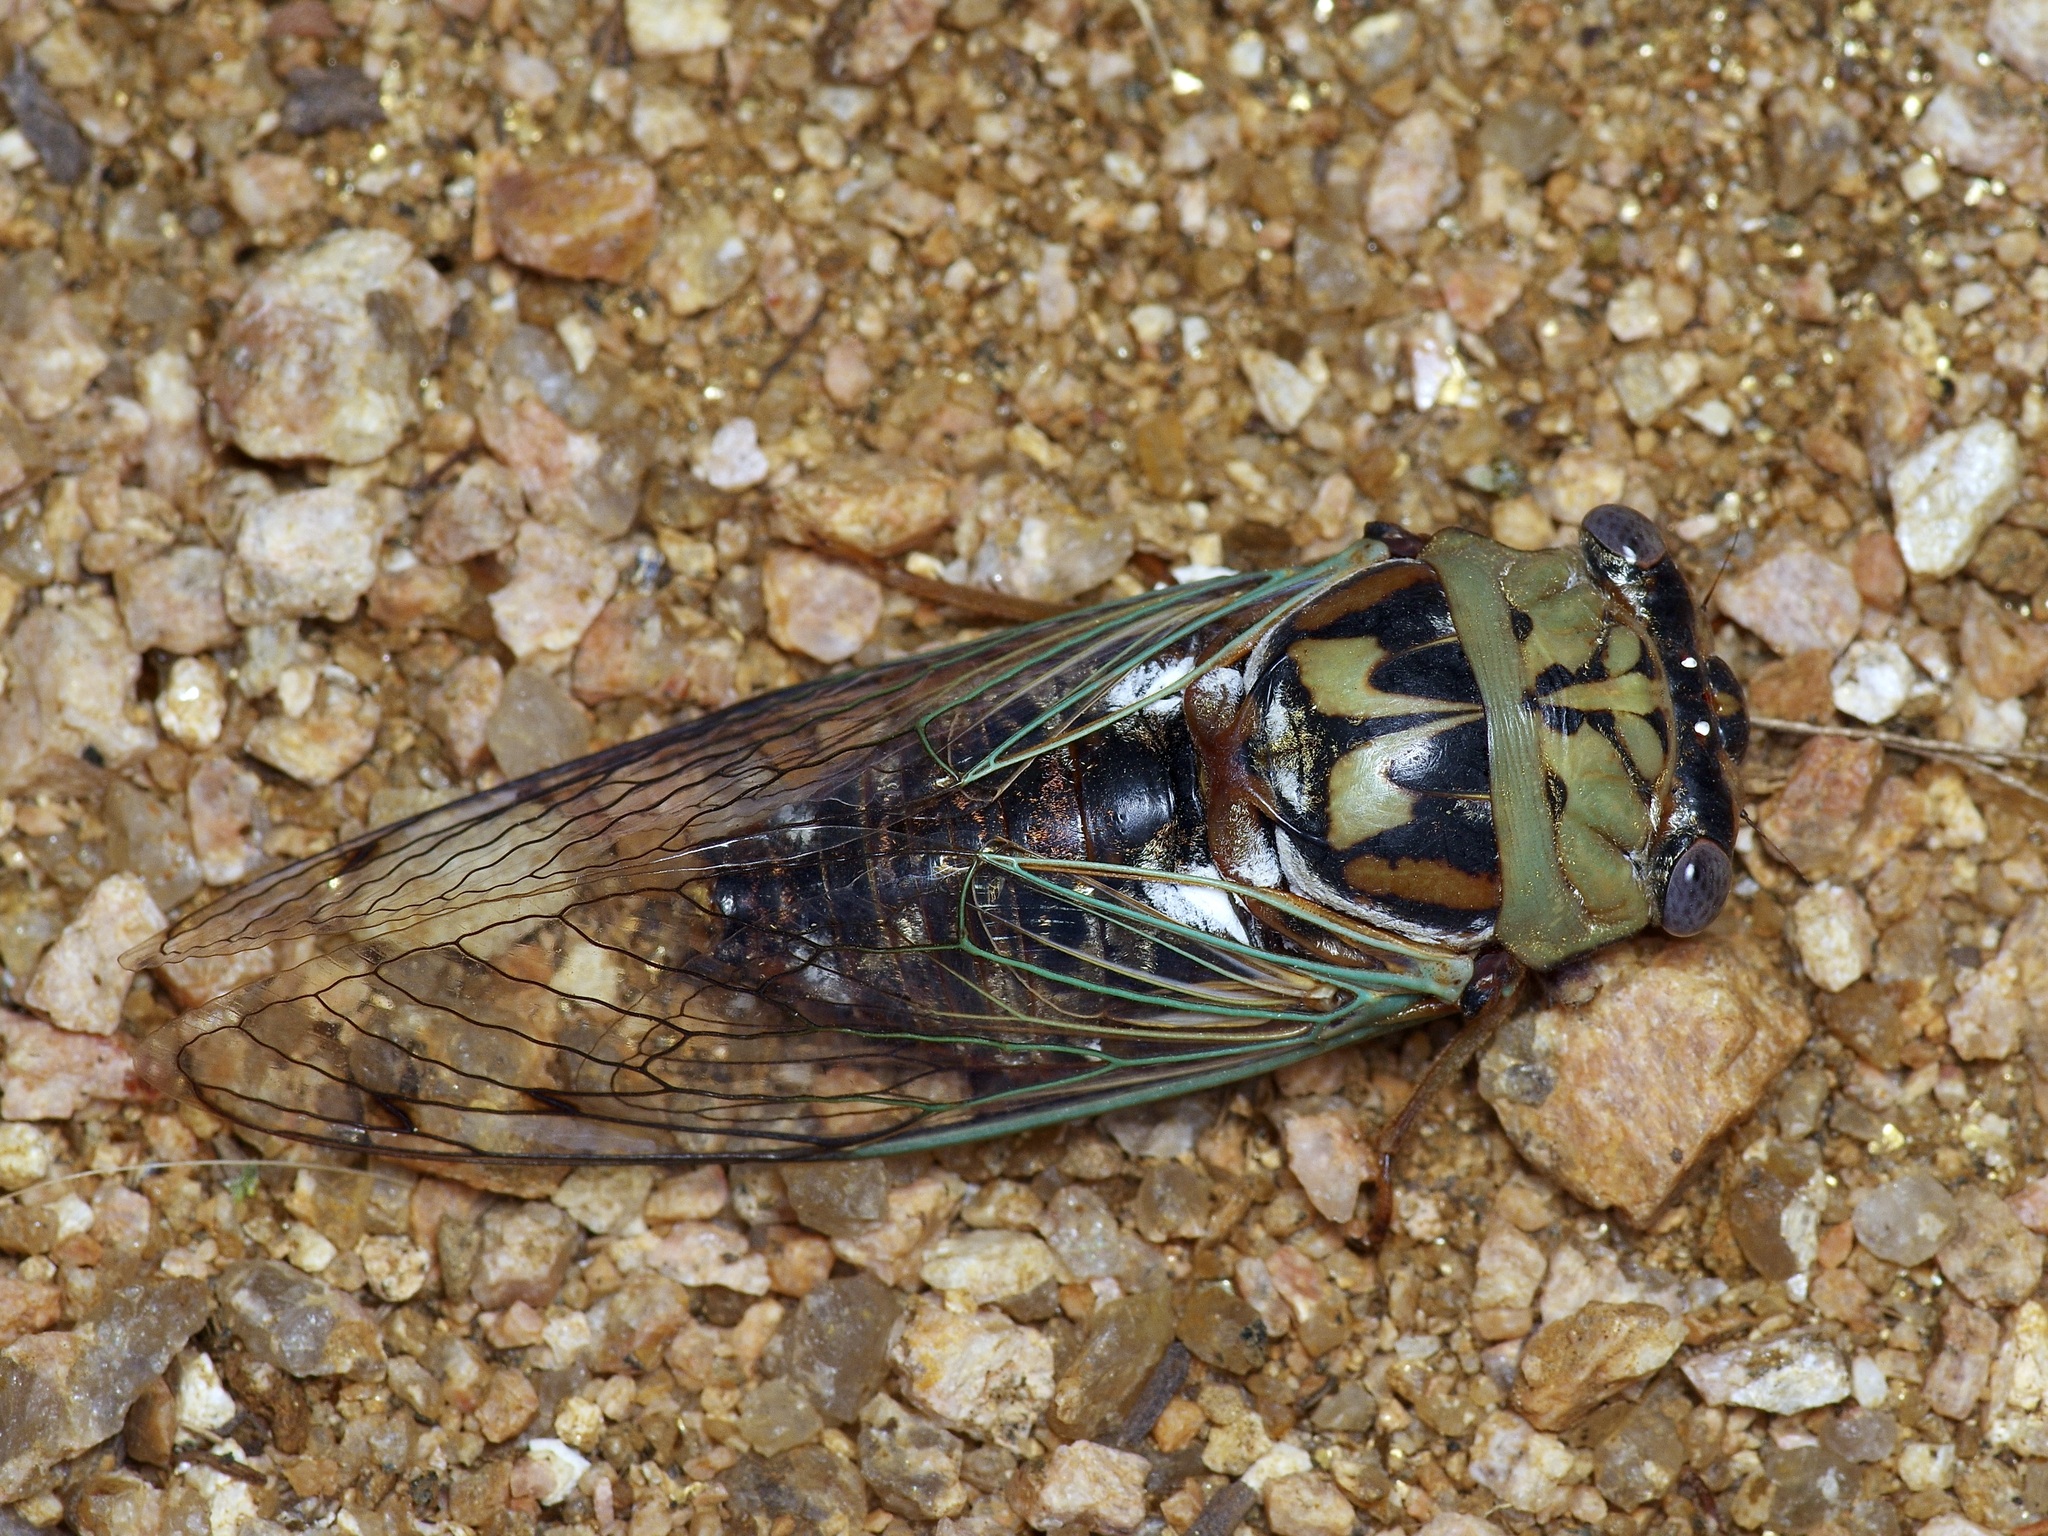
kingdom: Animalia
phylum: Arthropoda
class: Insecta
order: Hemiptera
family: Cicadidae
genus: Megatibicen
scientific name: Megatibicen resh
